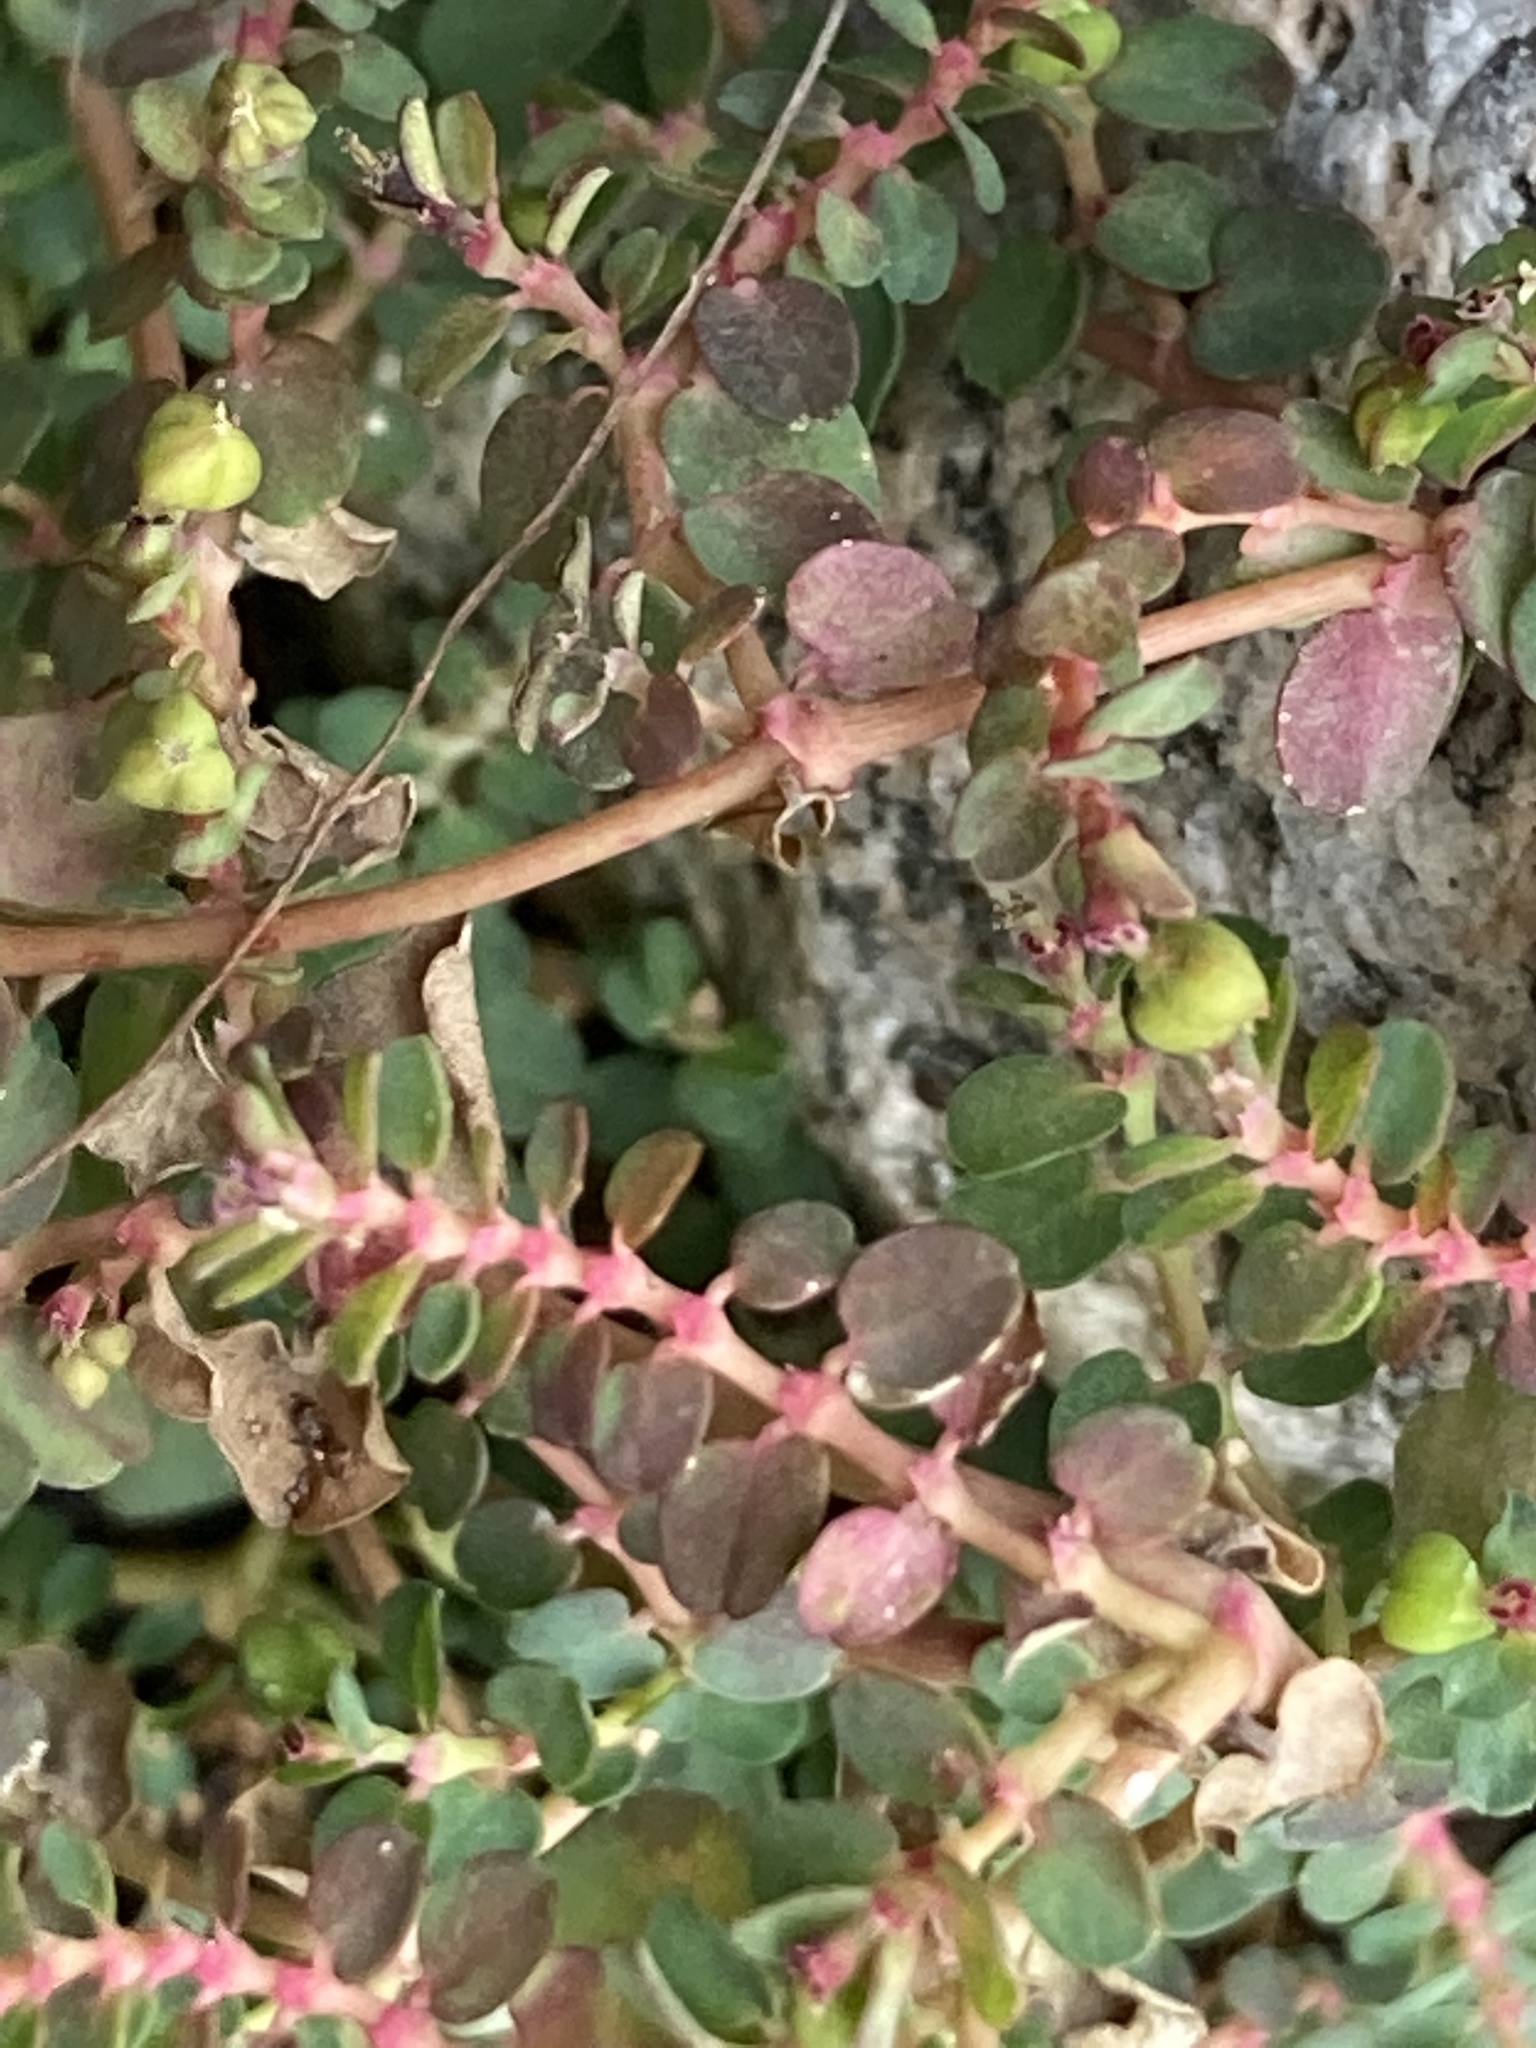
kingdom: Plantae
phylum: Tracheophyta
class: Magnoliopsida
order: Malpighiales
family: Euphorbiaceae
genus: Euphorbia
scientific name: Euphorbia serpens
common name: Matted sandmat
